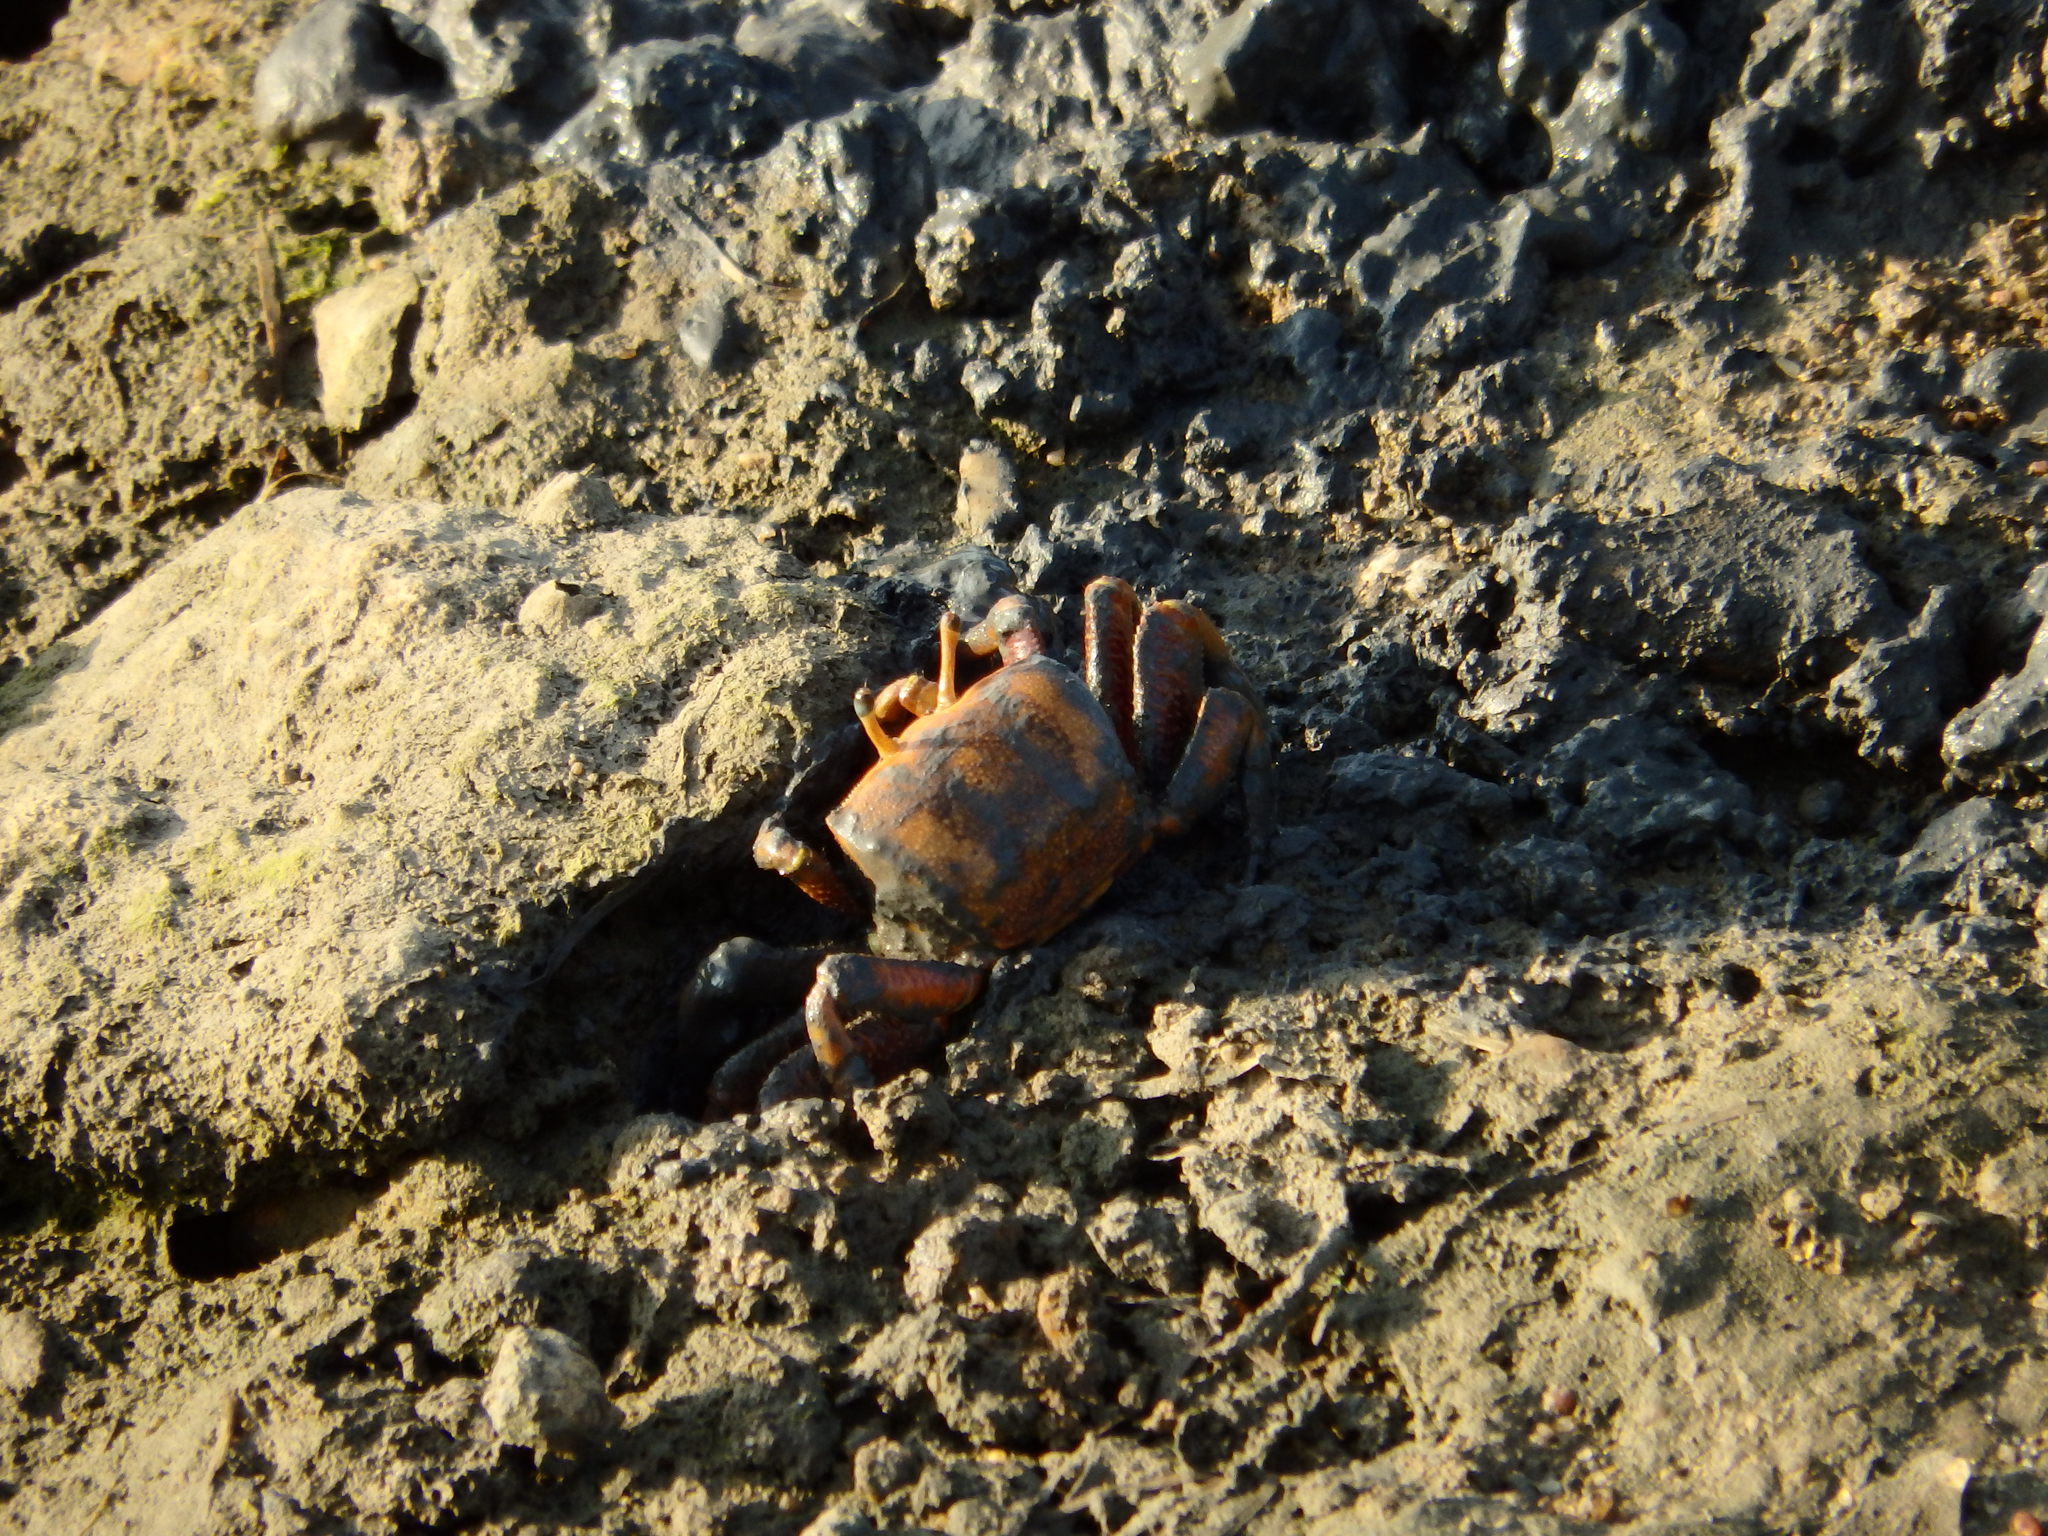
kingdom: Animalia
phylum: Arthropoda
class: Malacostraca
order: Decapoda
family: Ocypodidae
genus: Afruca
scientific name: Afruca tangeri
